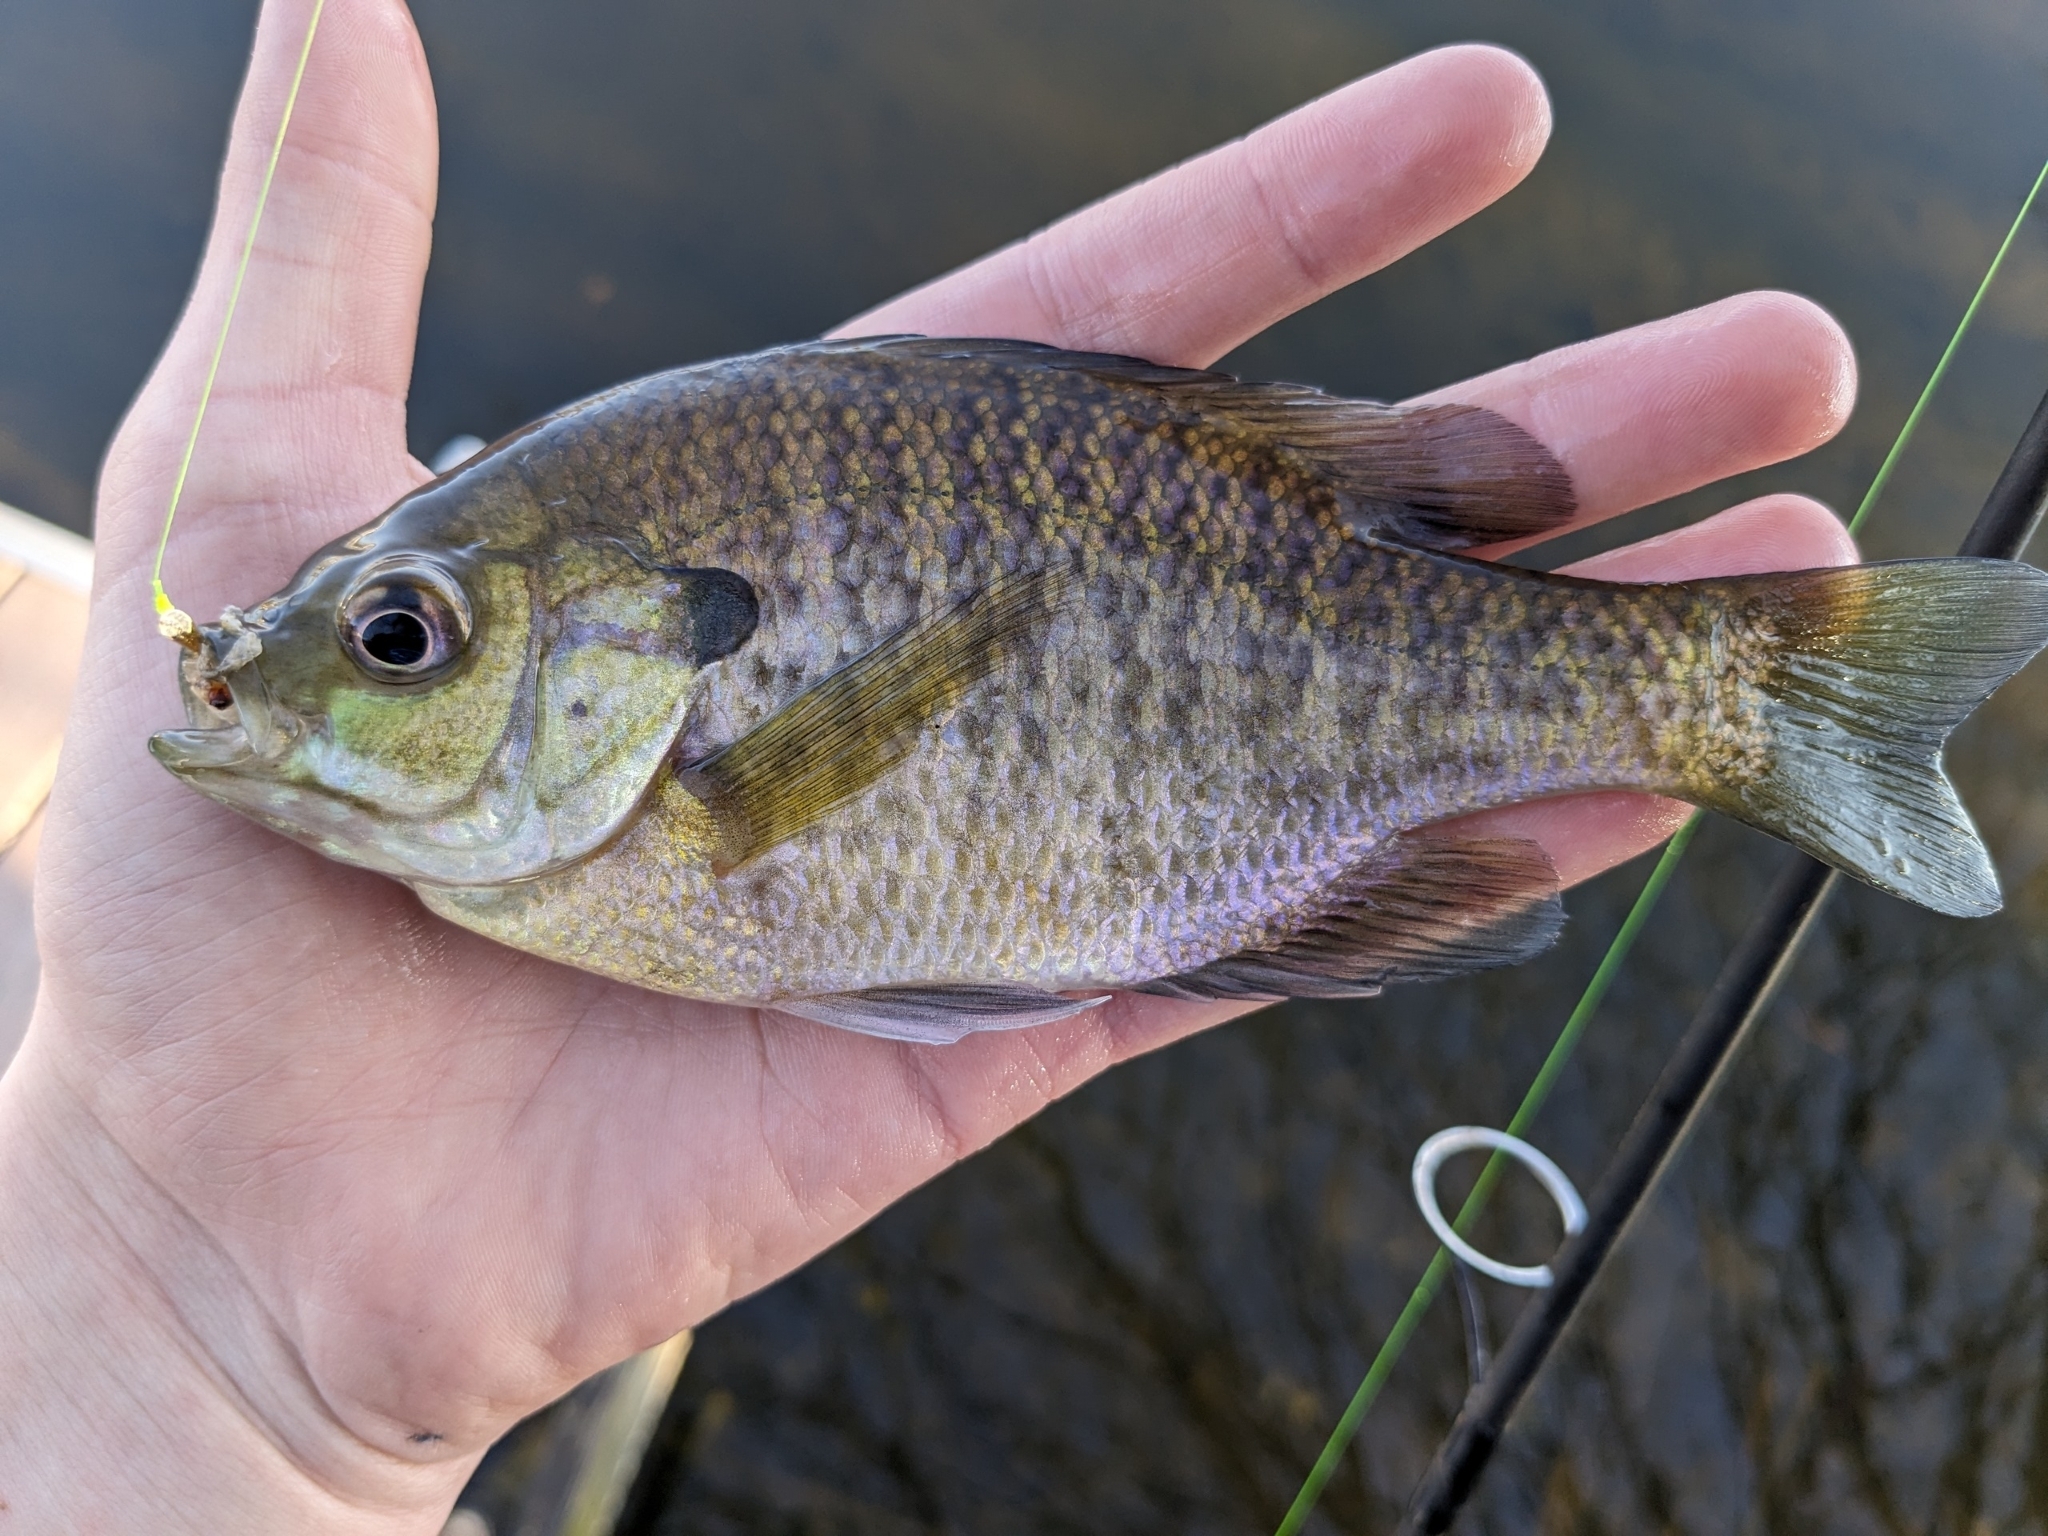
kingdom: Animalia
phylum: Chordata
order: Perciformes
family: Centrarchidae
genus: Lepomis
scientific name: Lepomis macrochirus
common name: Bluegill
